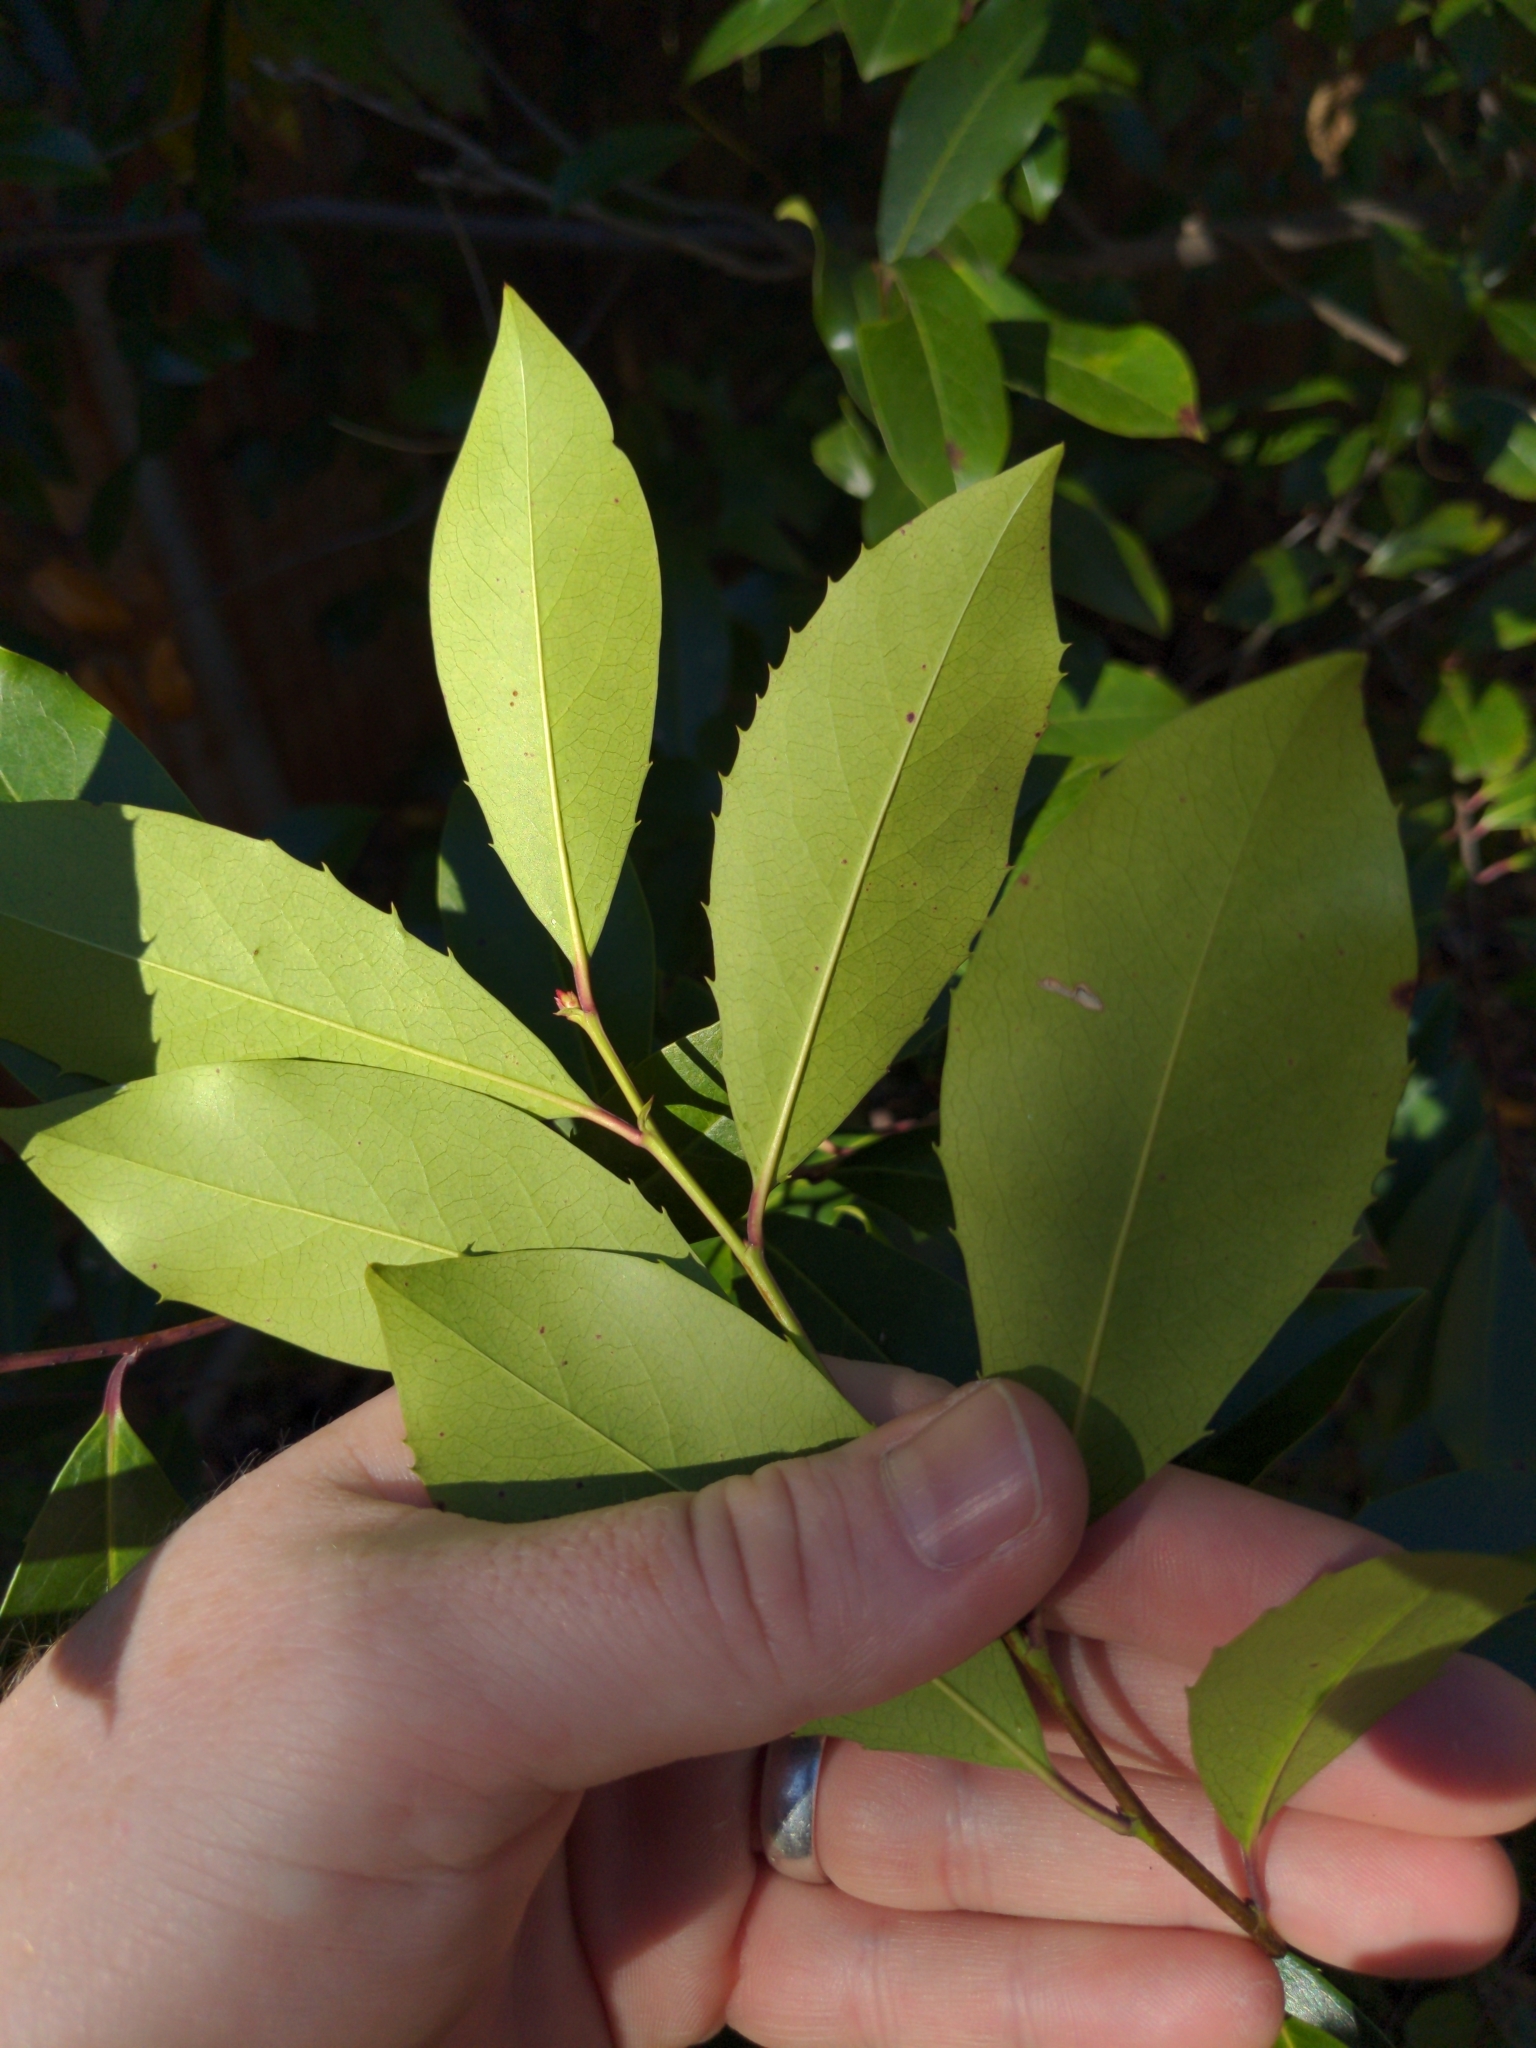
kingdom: Plantae
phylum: Tracheophyta
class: Magnoliopsida
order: Rosales
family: Rosaceae
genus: Prunus
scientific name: Prunus caroliniana
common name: Carolina laurel cherry
